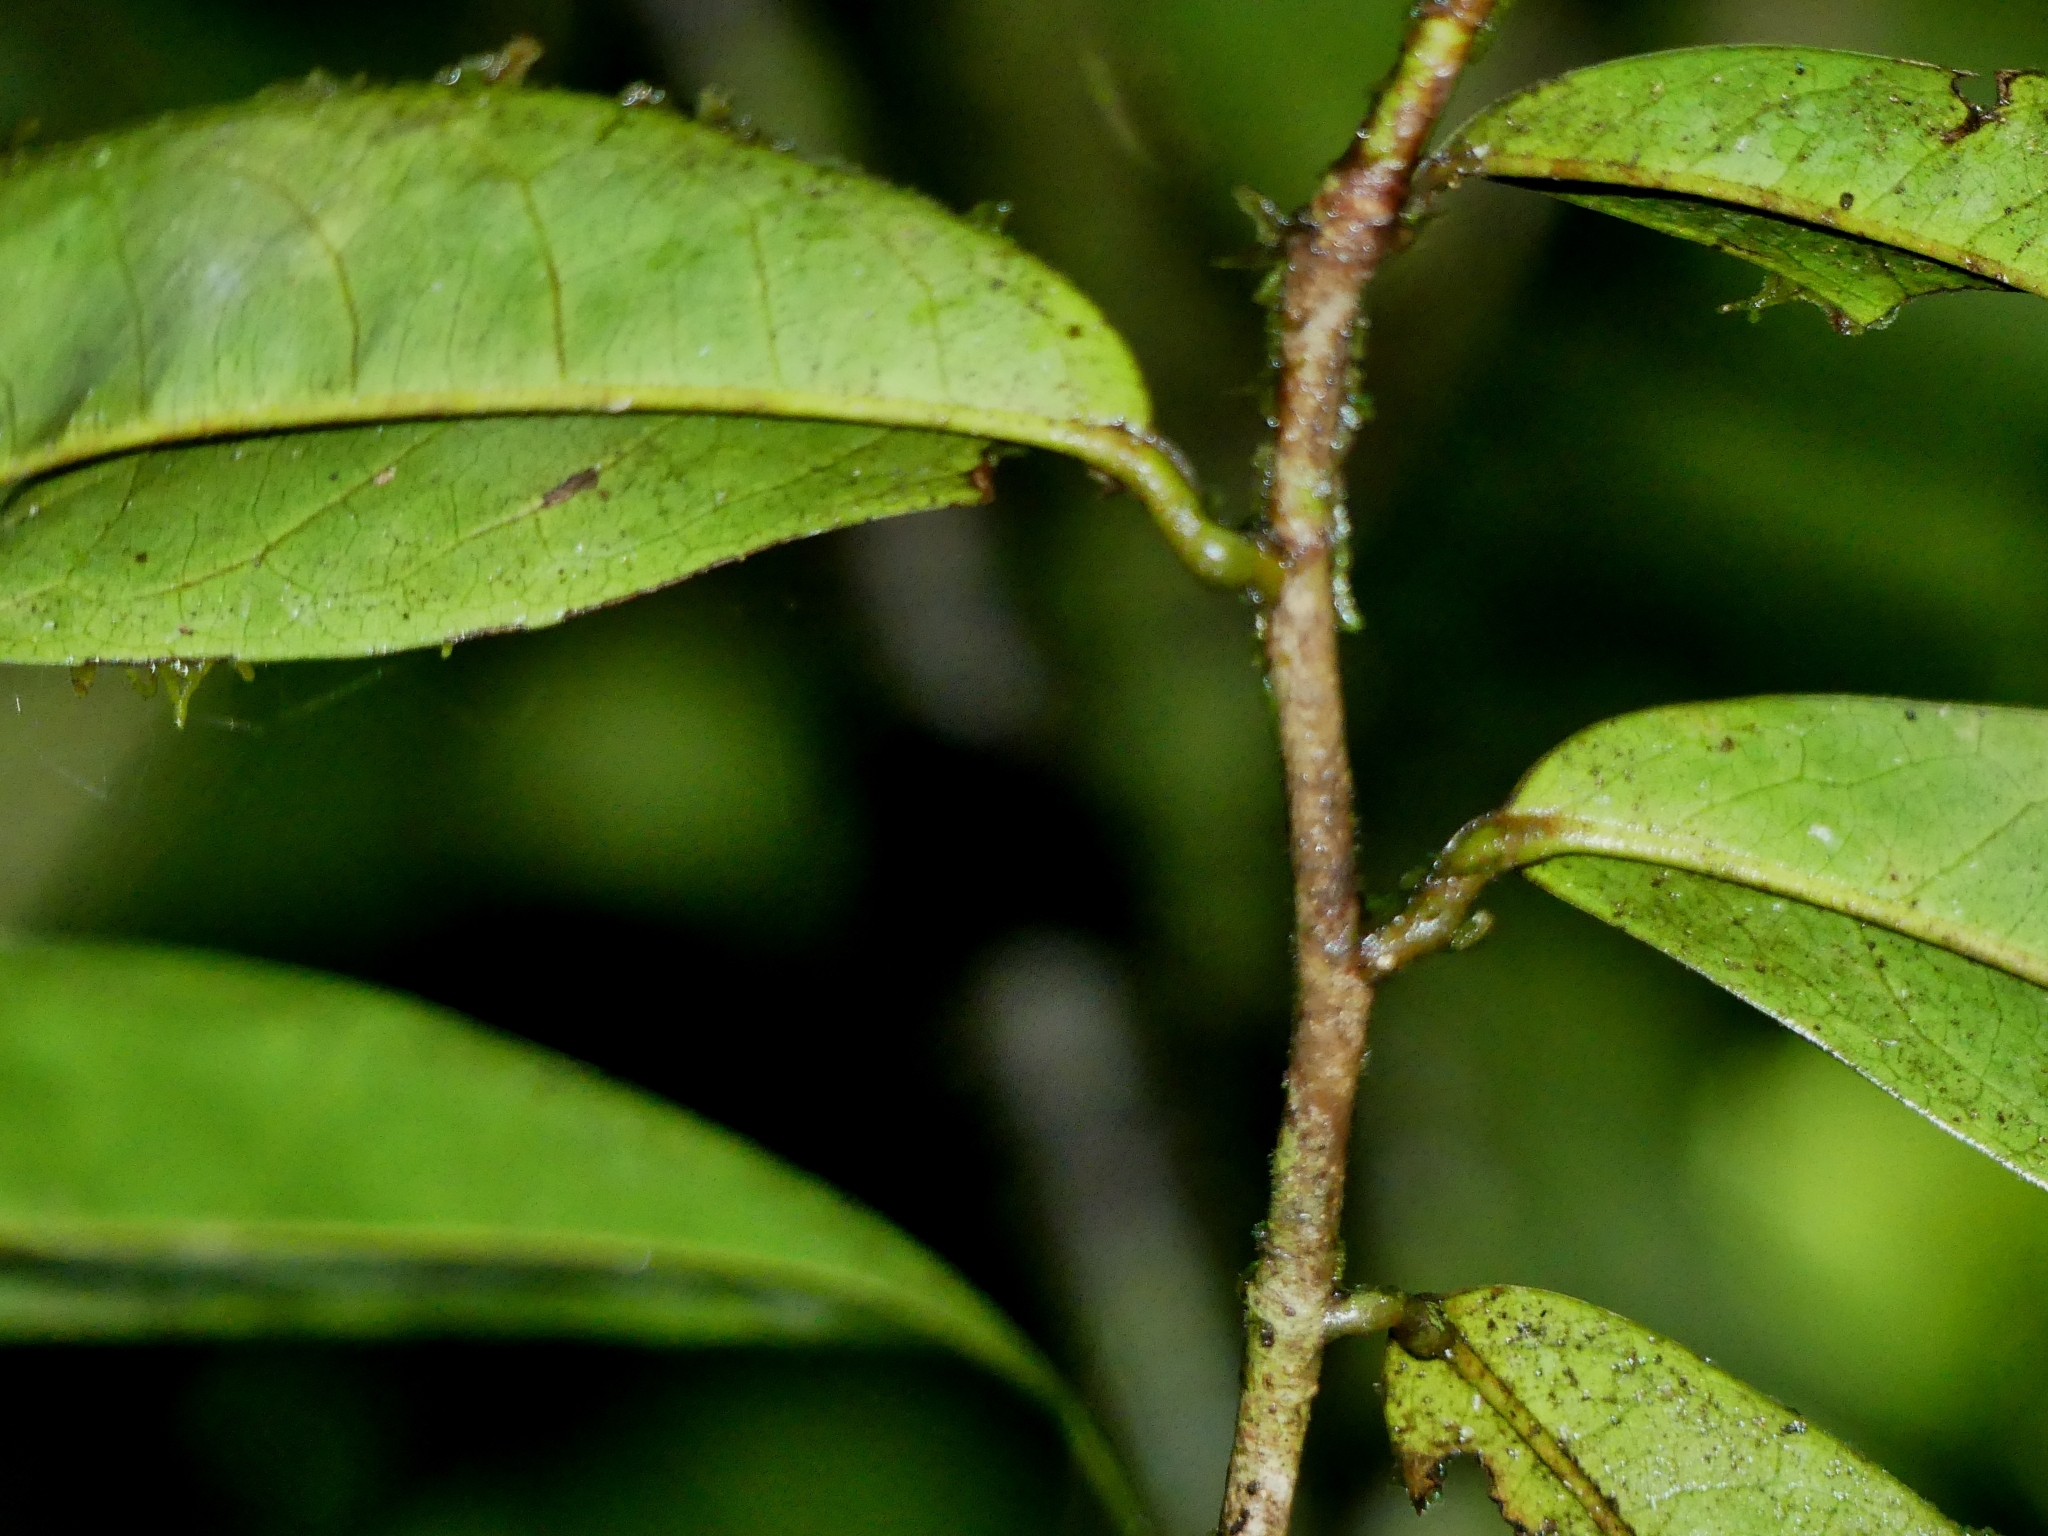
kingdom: Plantae
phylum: Tracheophyta
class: Magnoliopsida
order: Magnoliales
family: Annonaceae
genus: Anaxagorea
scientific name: Anaxagorea dolichocarpa
